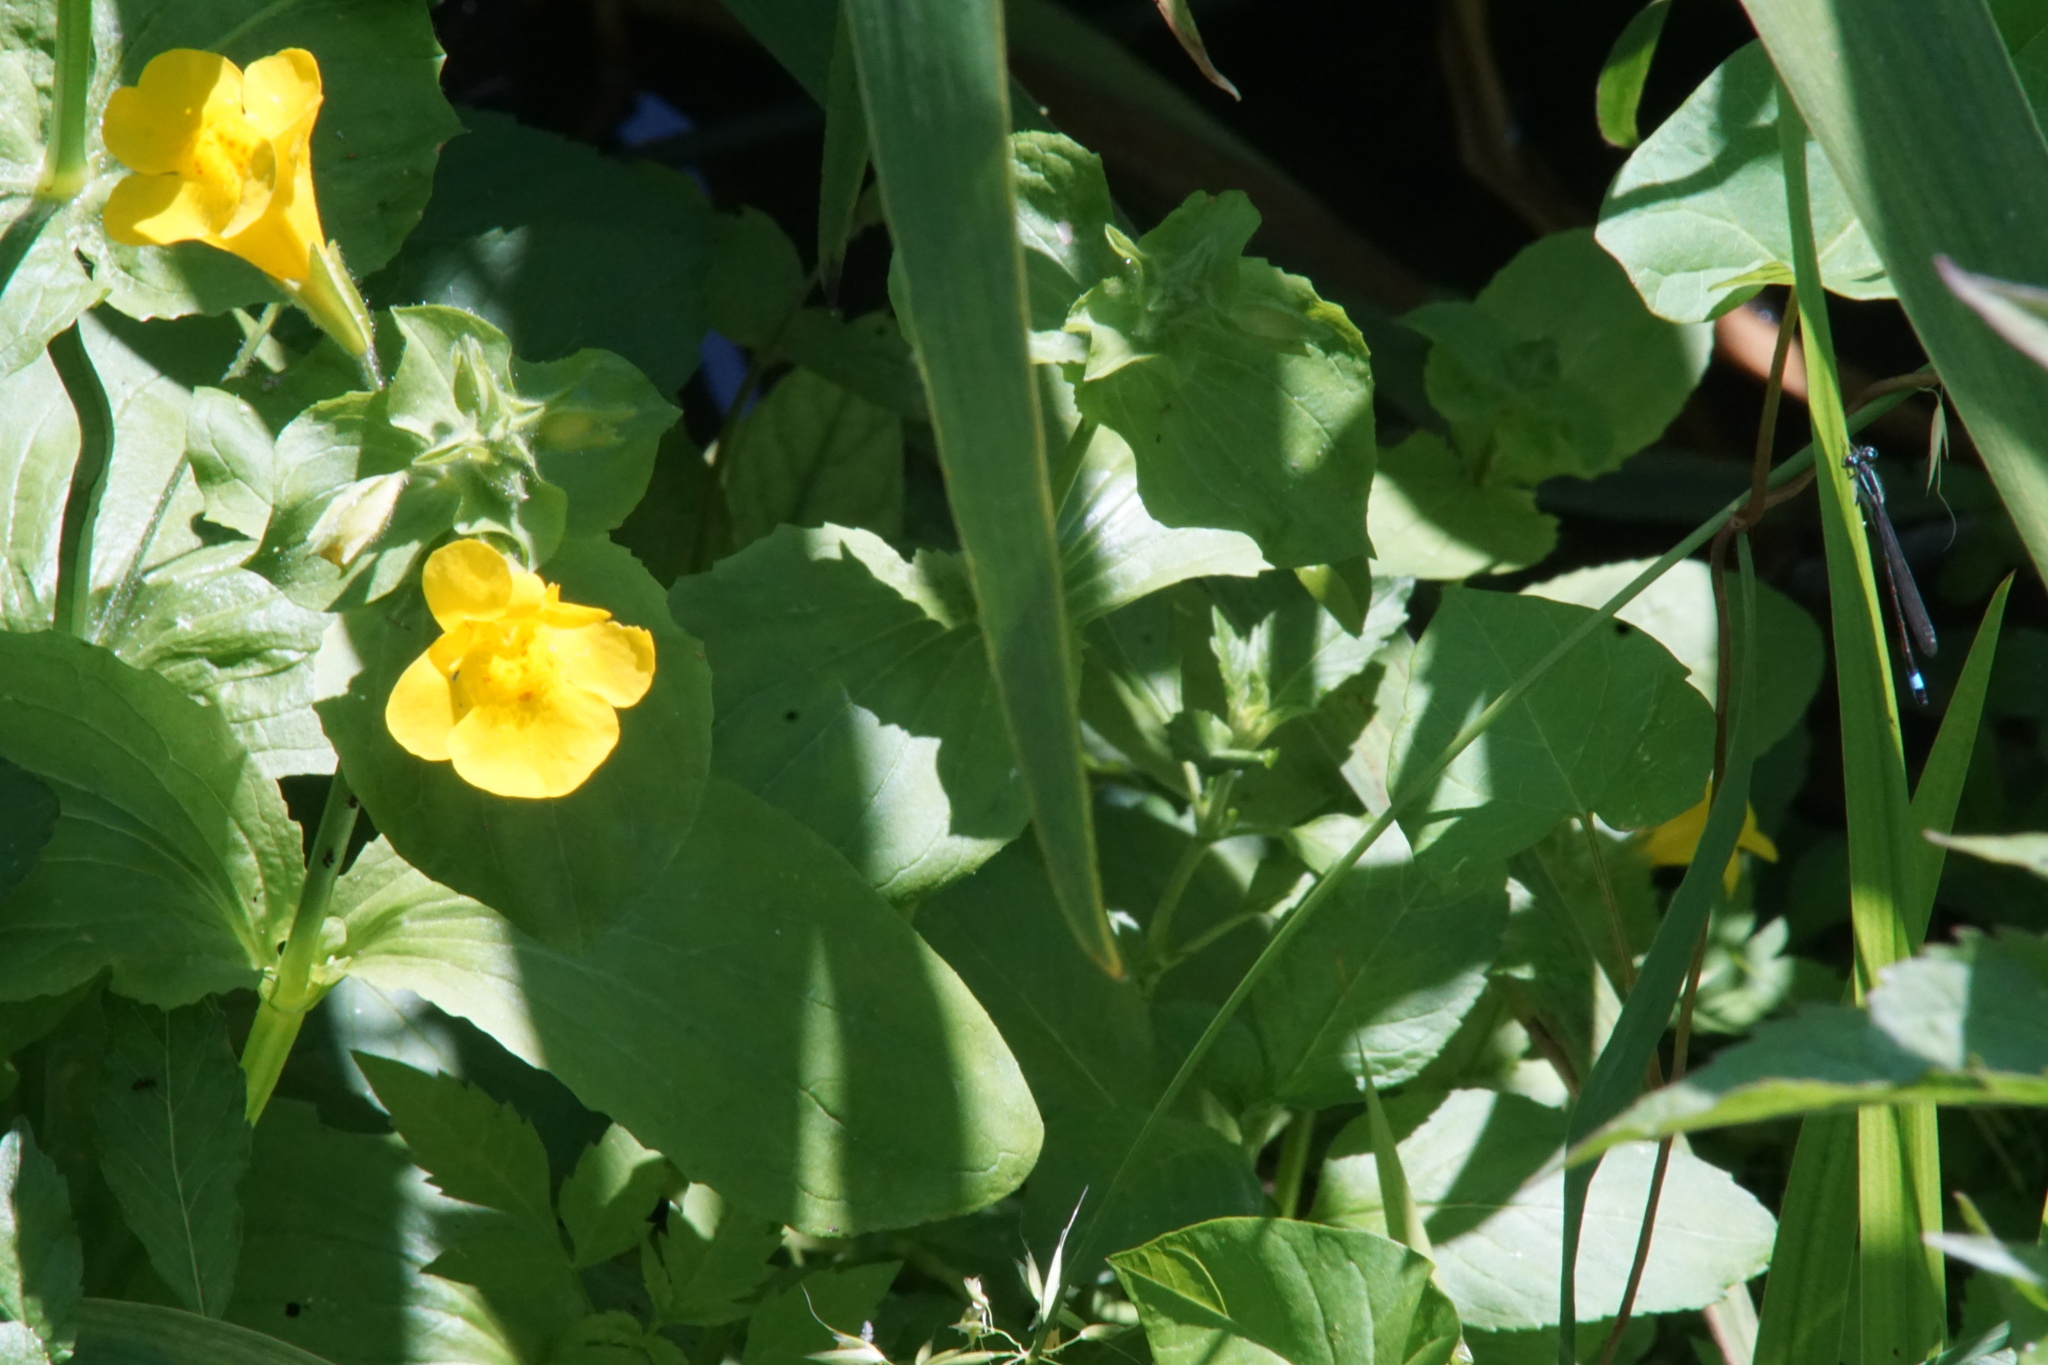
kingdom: Animalia
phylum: Arthropoda
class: Insecta
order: Odonata
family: Coenagrionidae
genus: Ischnura
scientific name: Ischnura elegans
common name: Blue-tailed damselfly
